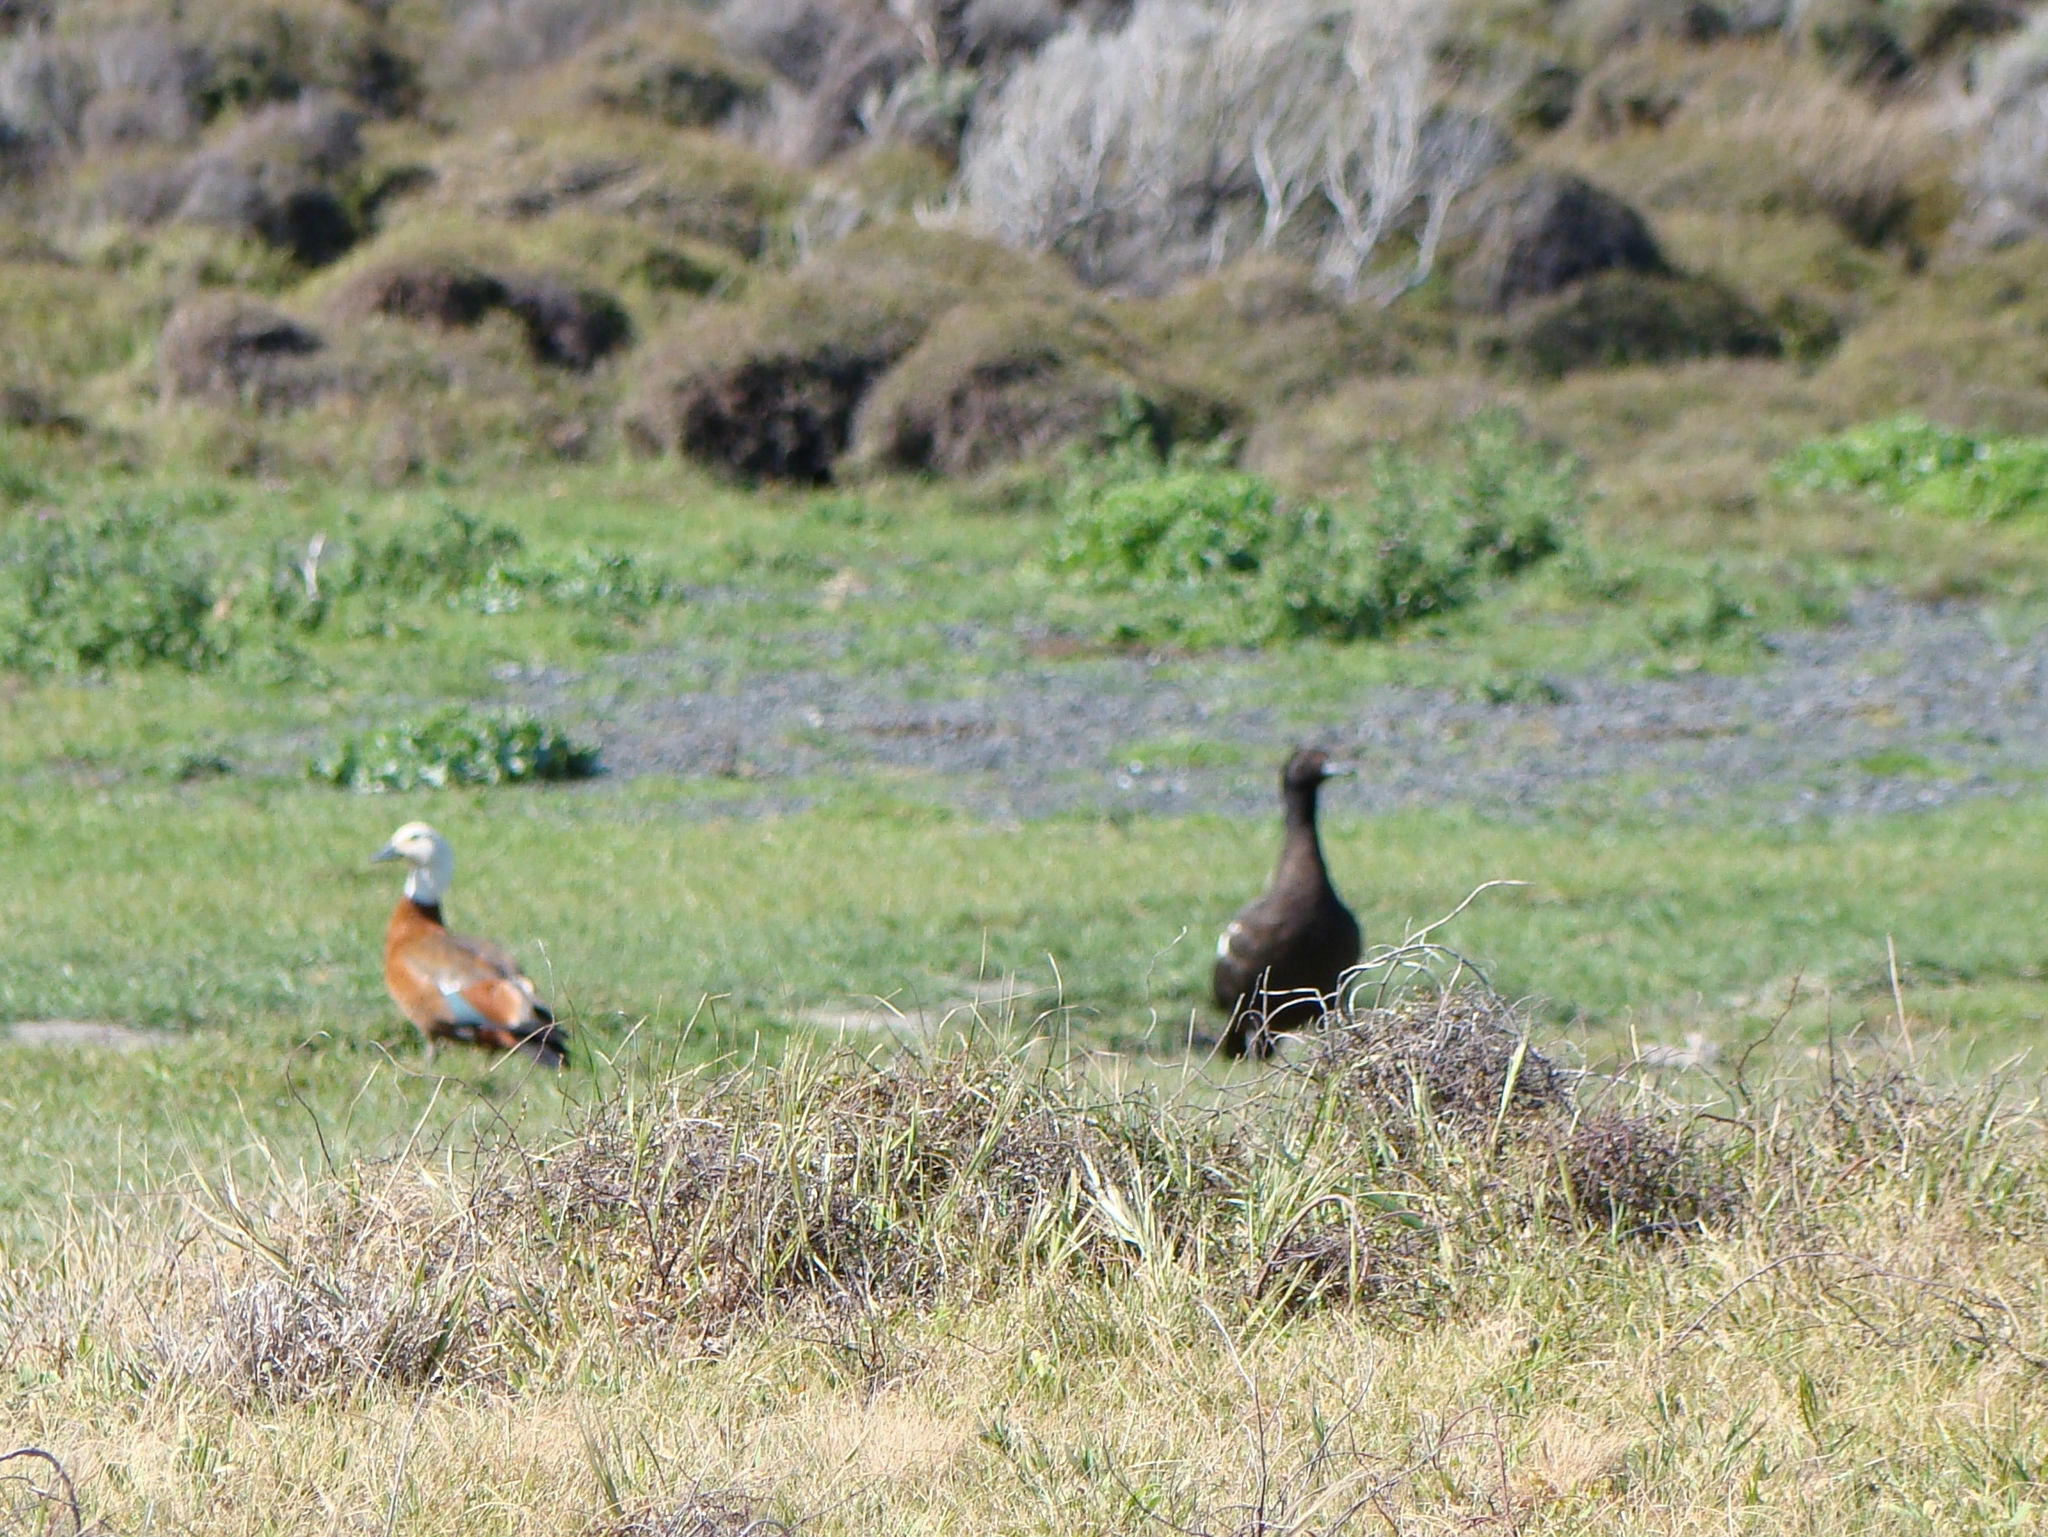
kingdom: Animalia
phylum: Chordata
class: Aves
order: Anseriformes
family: Anatidae
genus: Tadorna
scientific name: Tadorna variegata
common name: Paradise shelduck
